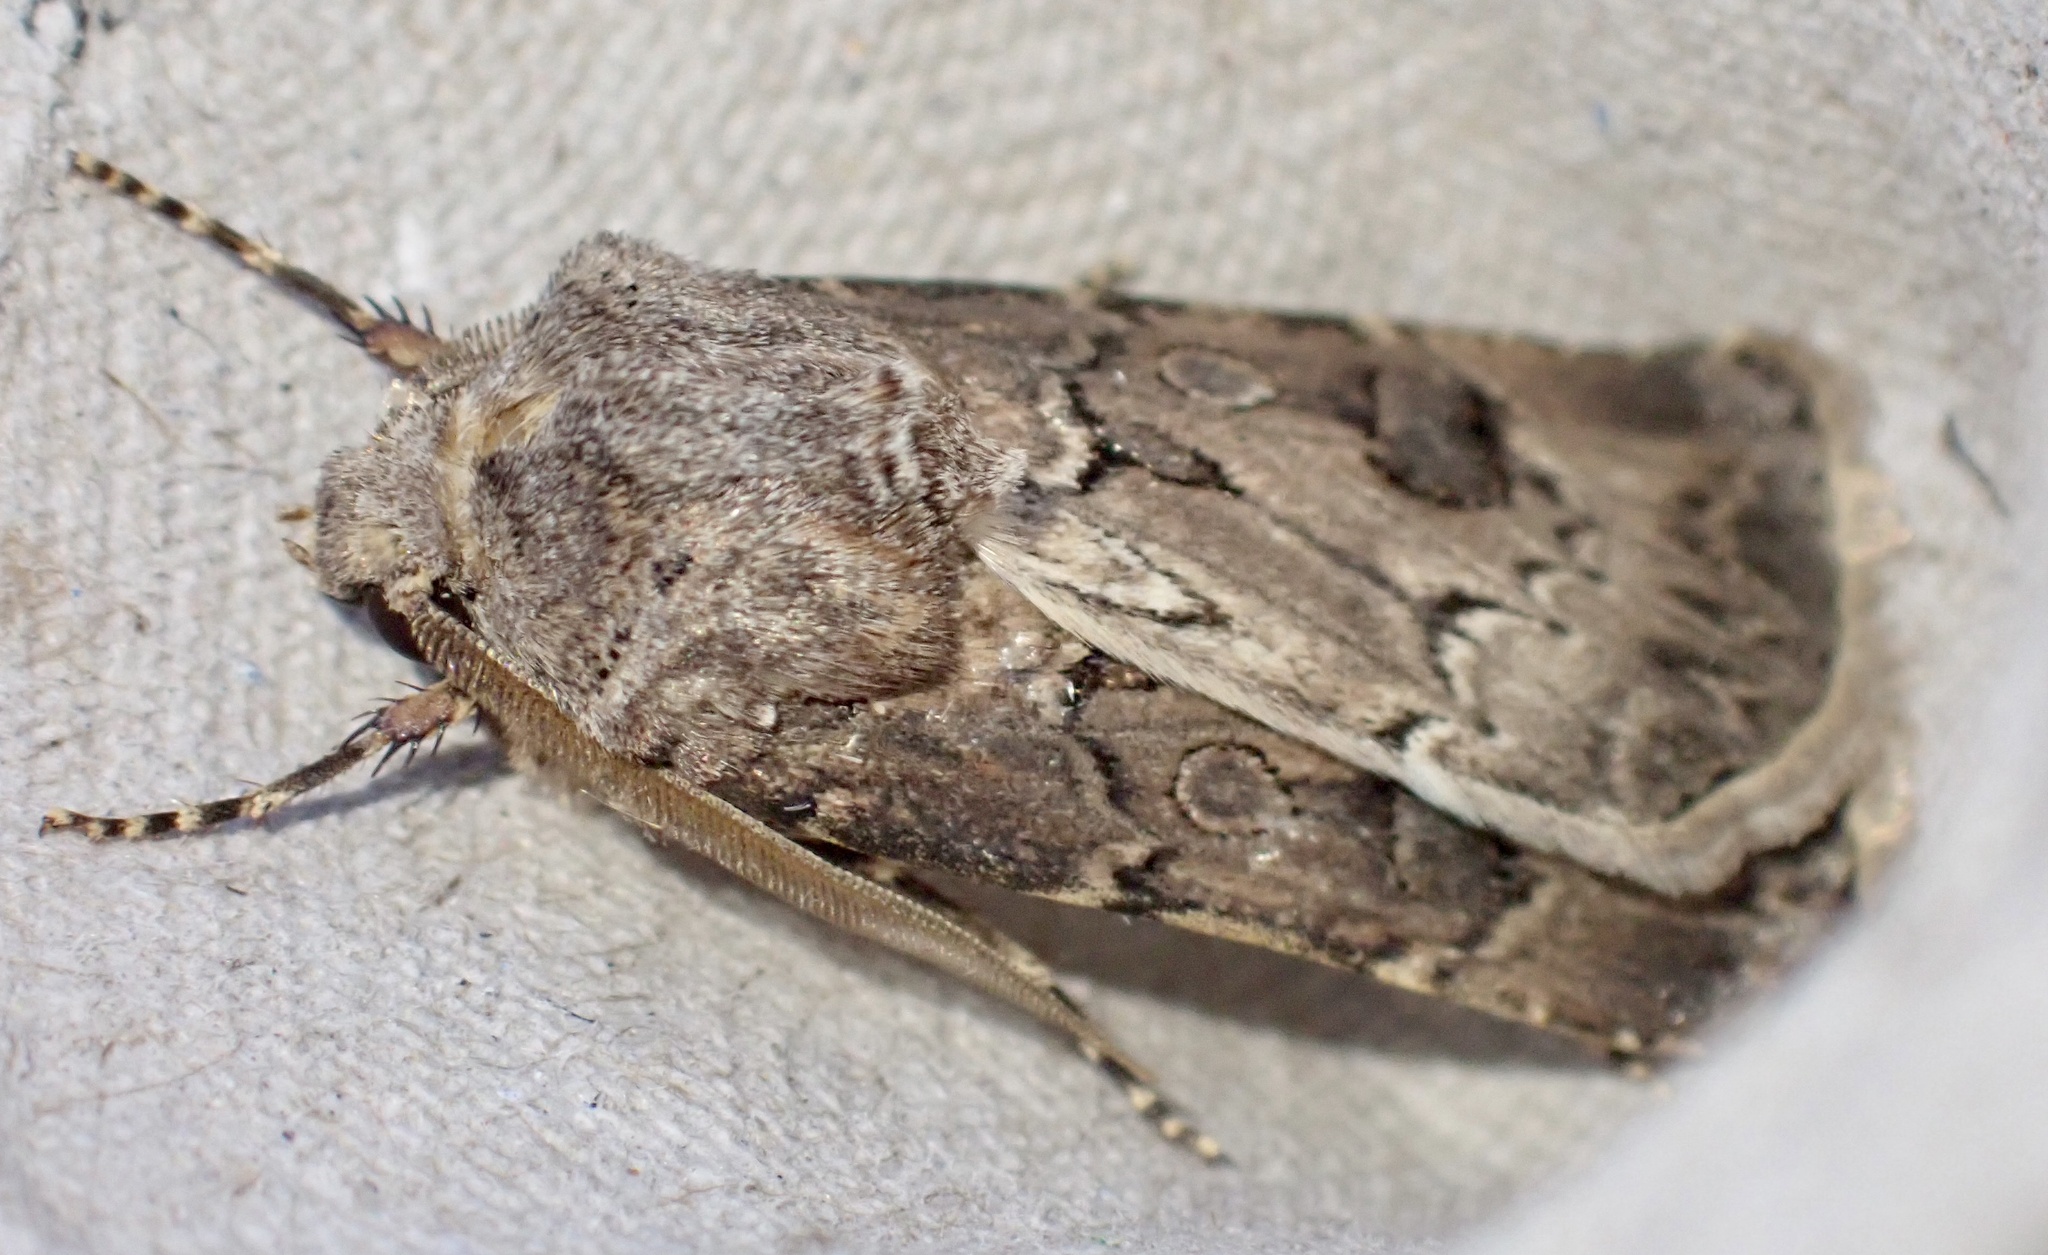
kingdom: Animalia
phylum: Arthropoda
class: Insecta
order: Lepidoptera
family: Noctuidae
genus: Agrotis
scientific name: Agrotis bigramma
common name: Great dart
